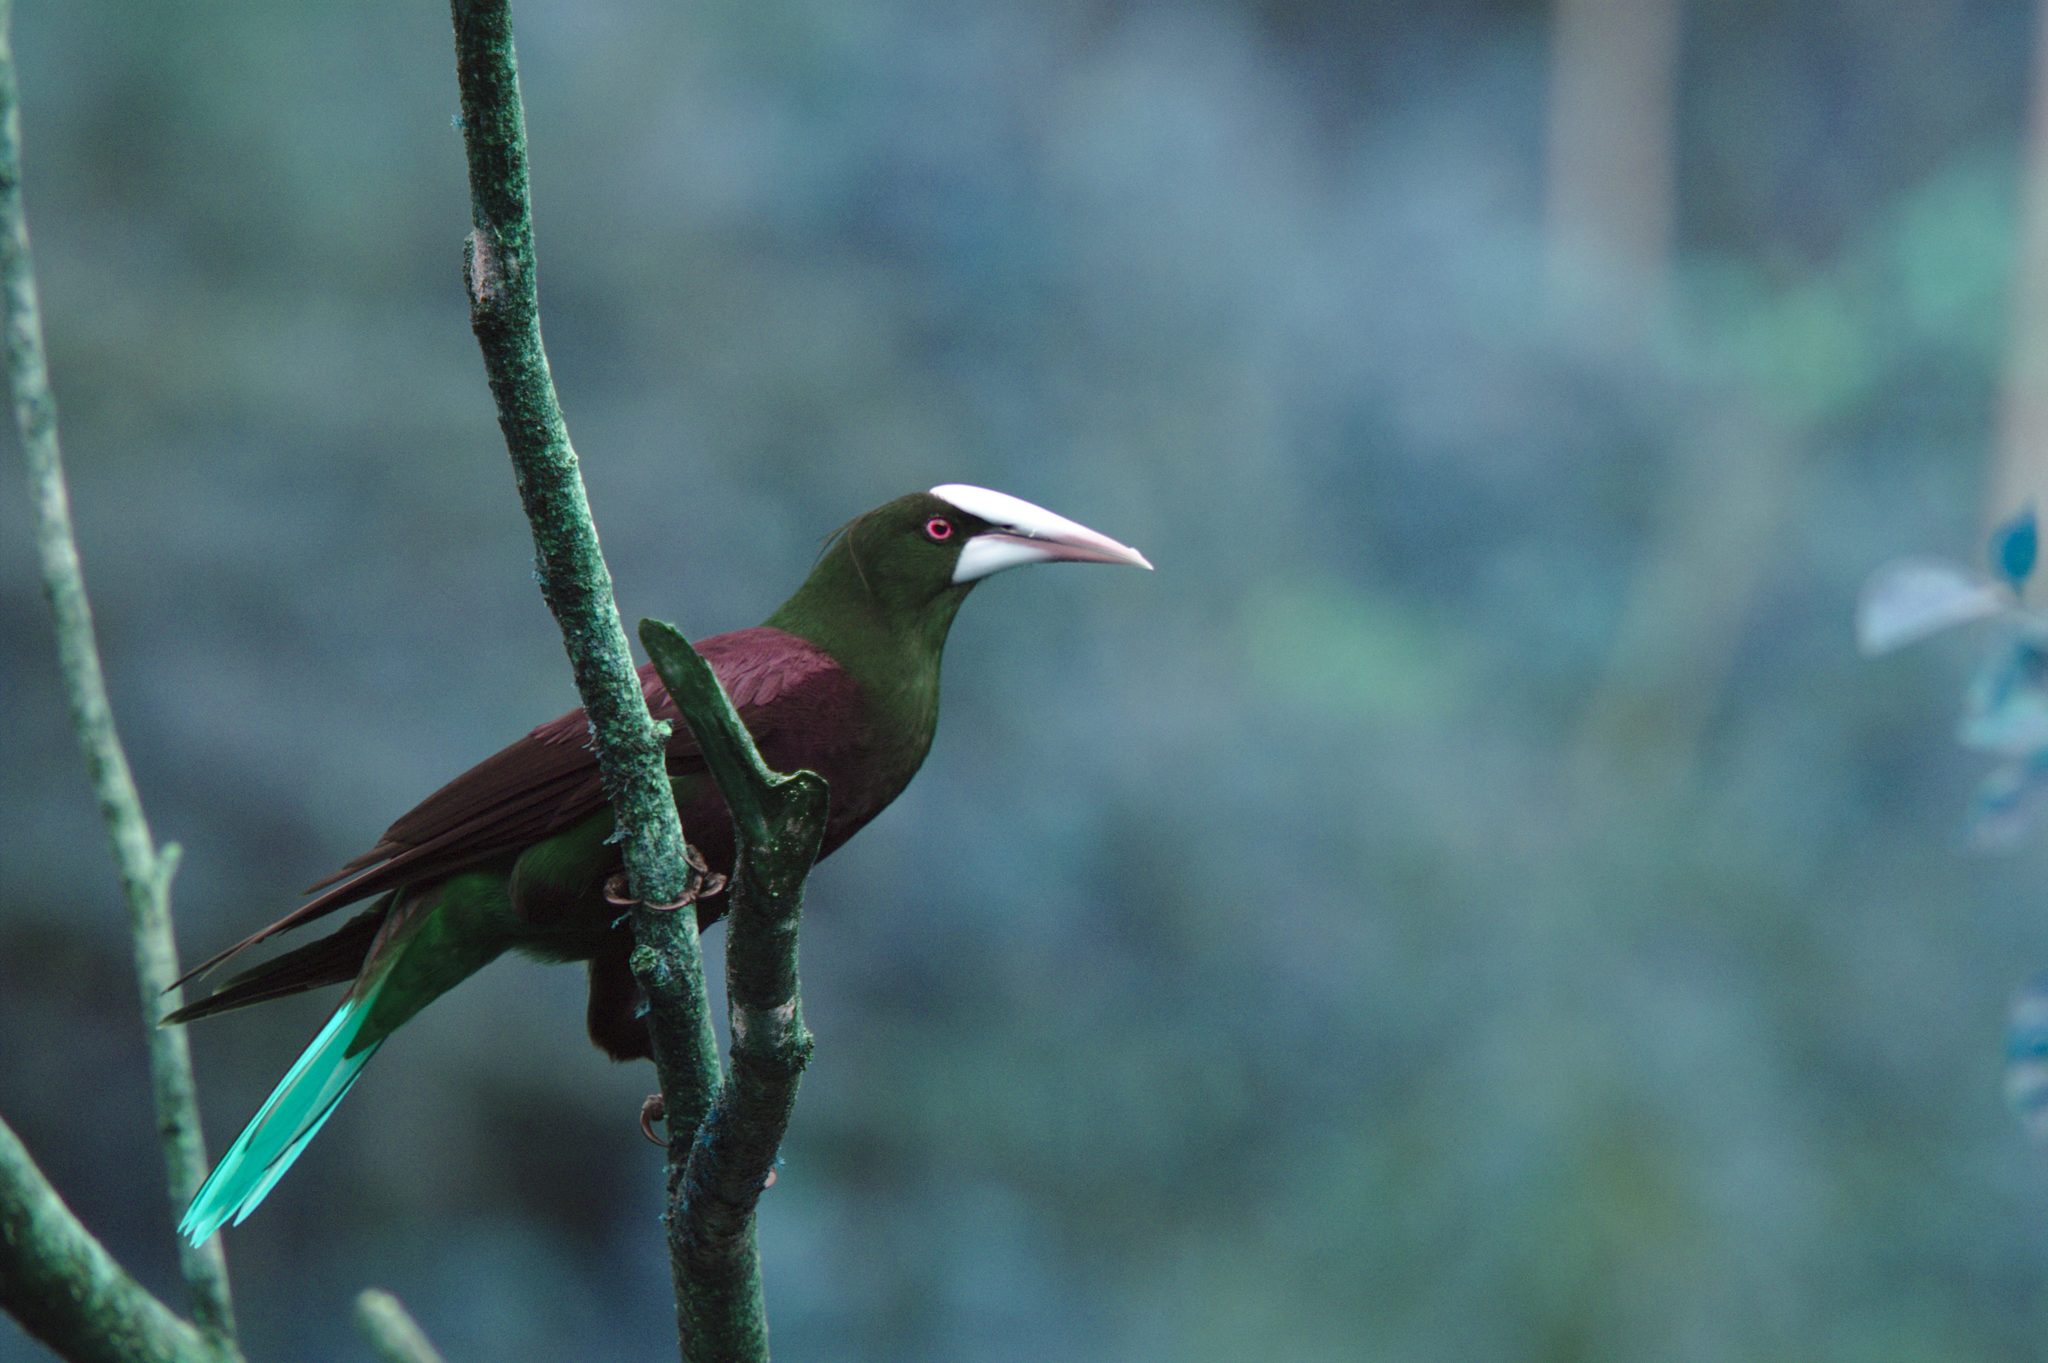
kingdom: Animalia
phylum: Chordata
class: Aves
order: Passeriformes
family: Icteridae
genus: Psarocolius
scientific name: Psarocolius wagleri
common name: Chestnut-headed oropendola
